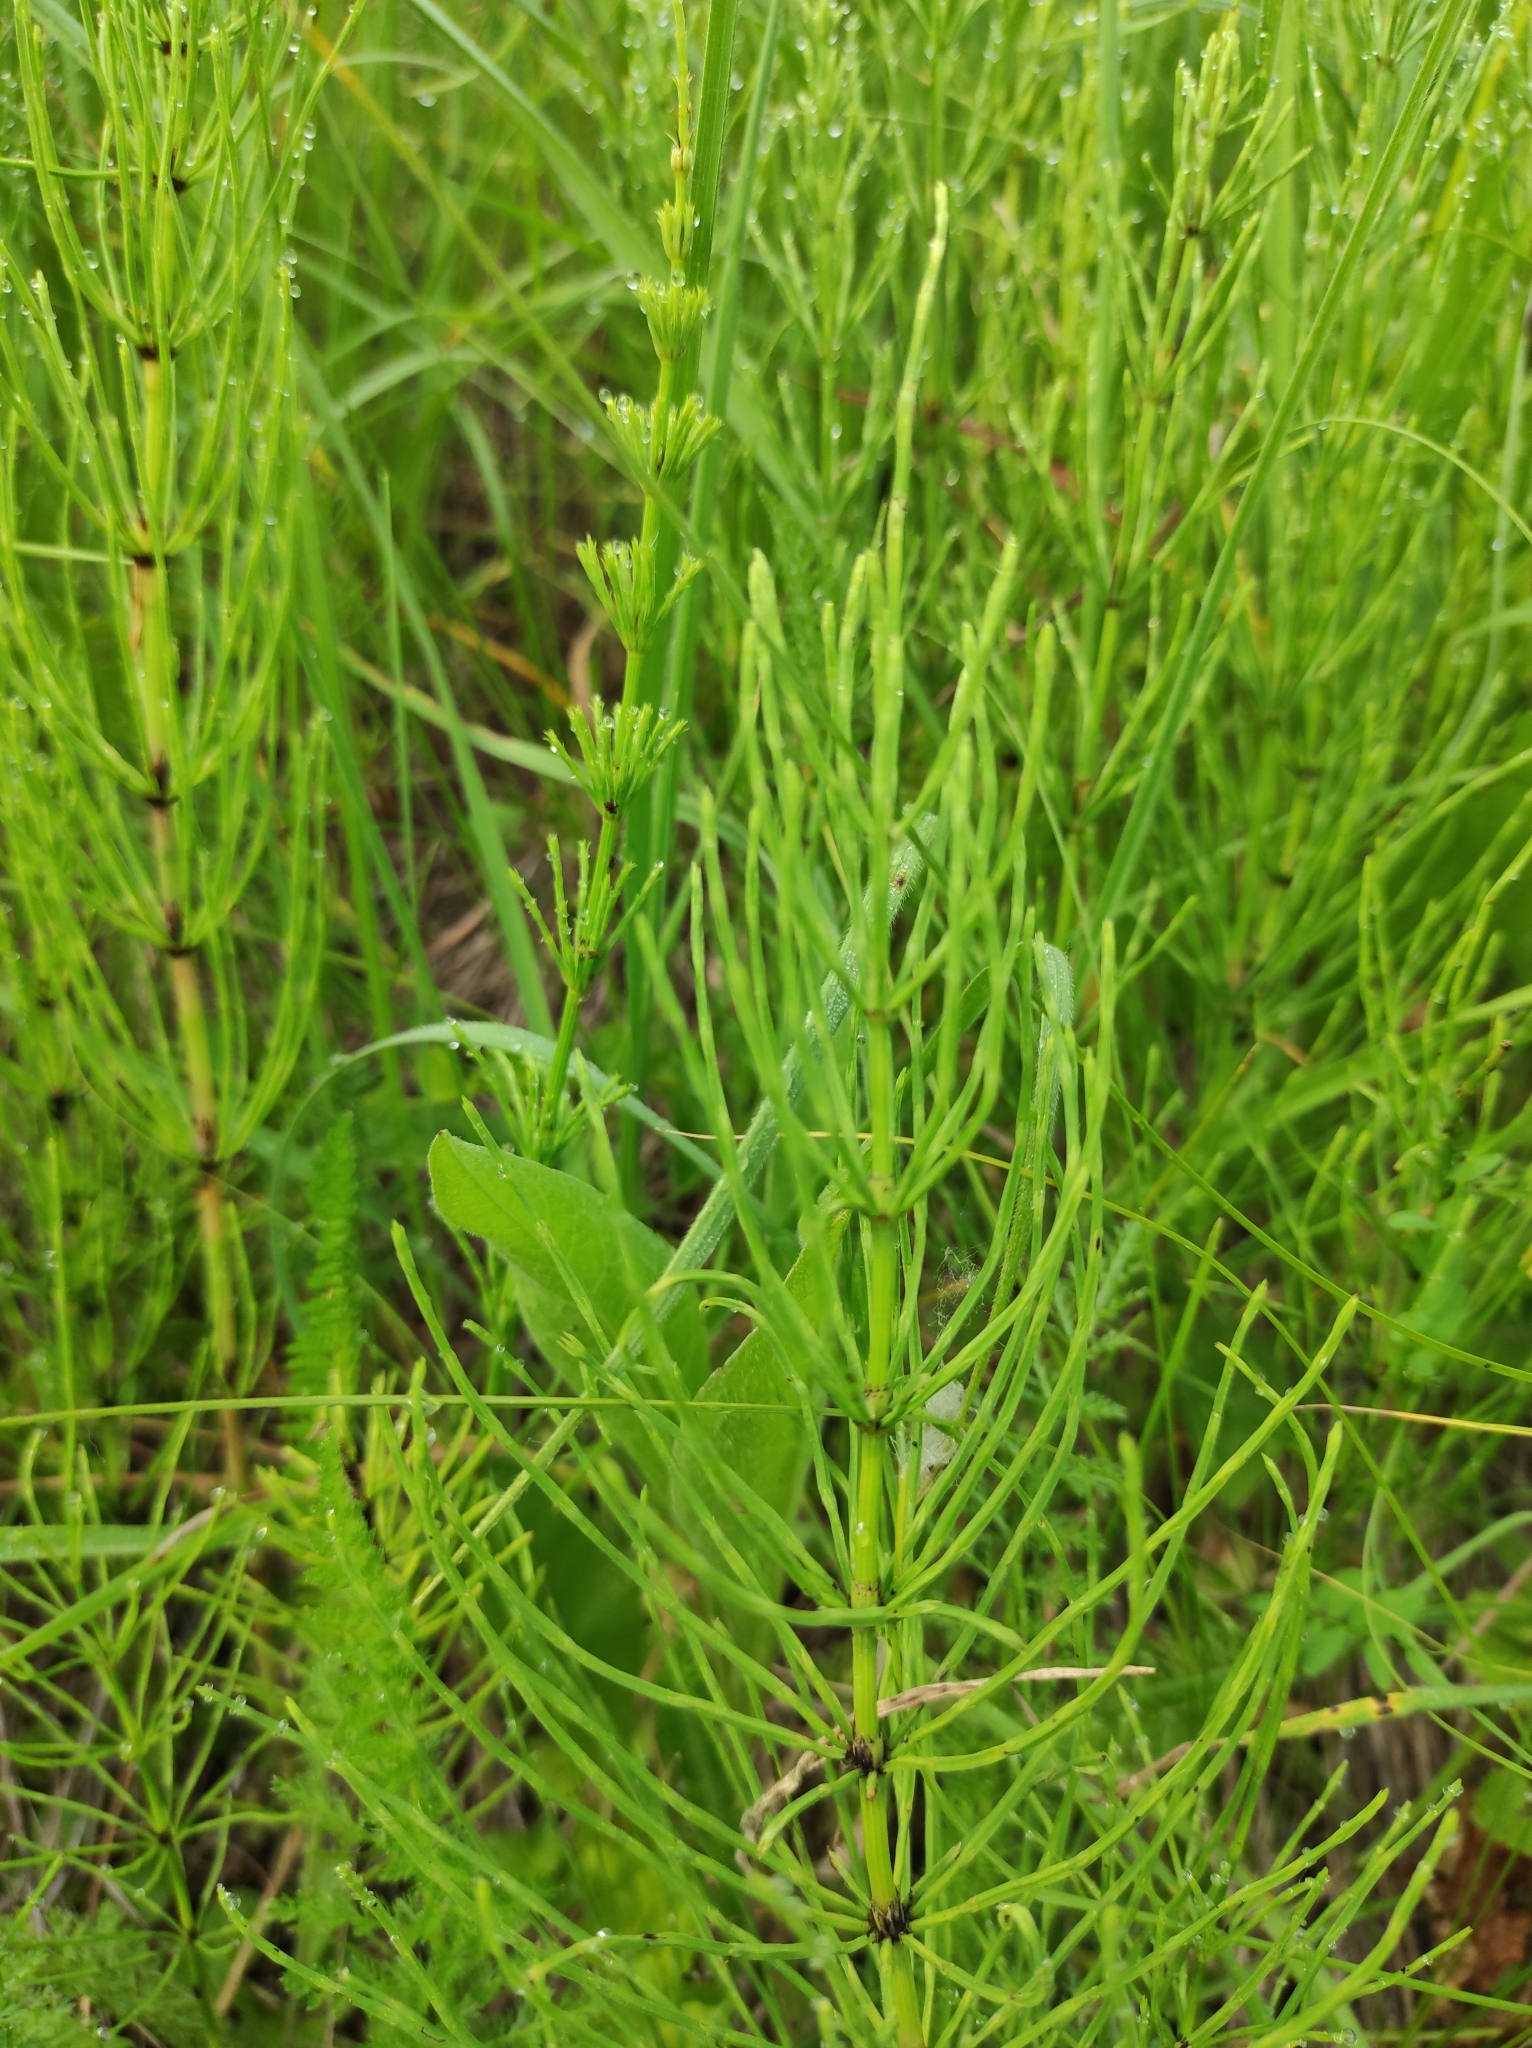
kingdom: Plantae
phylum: Tracheophyta
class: Polypodiopsida
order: Equisetales
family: Equisetaceae
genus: Equisetum
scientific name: Equisetum arvense
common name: Field horsetail
